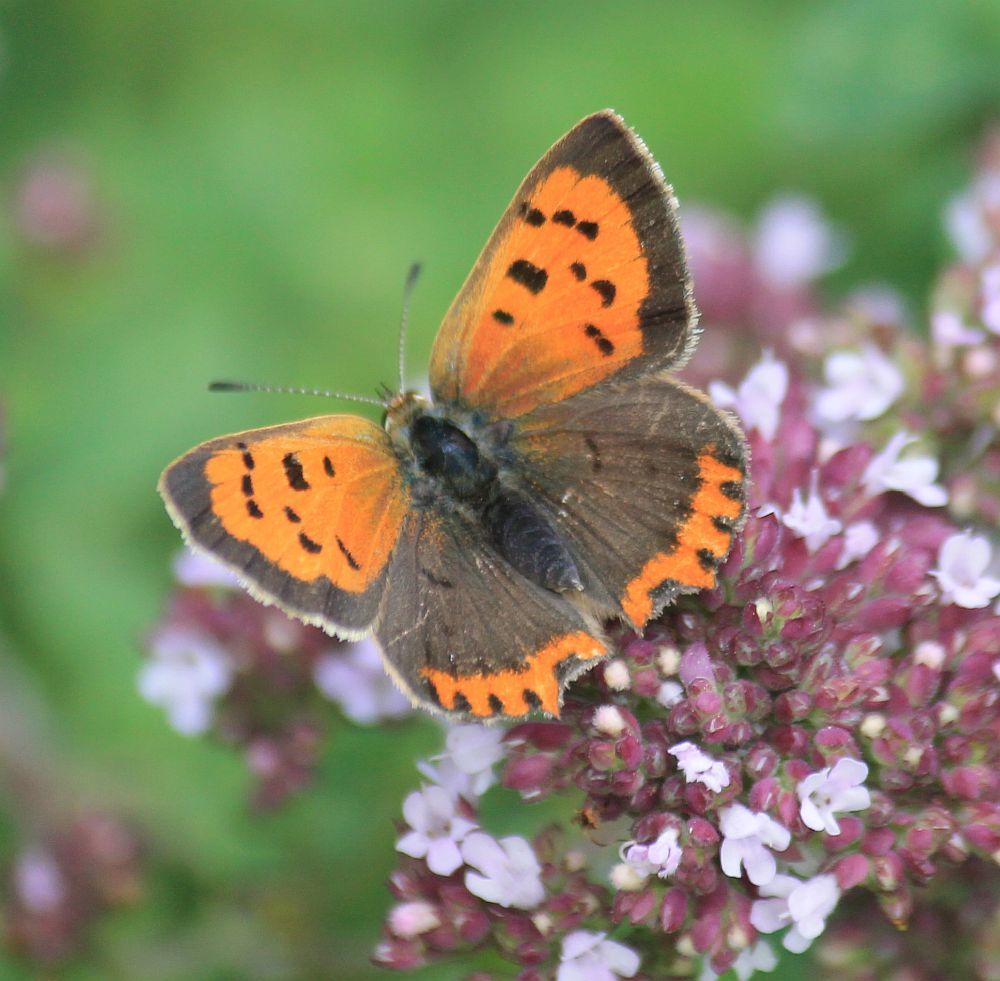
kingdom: Animalia
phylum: Arthropoda
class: Insecta
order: Lepidoptera
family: Lycaenidae
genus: Lycaena
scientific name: Lycaena phlaeas
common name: Small copper
